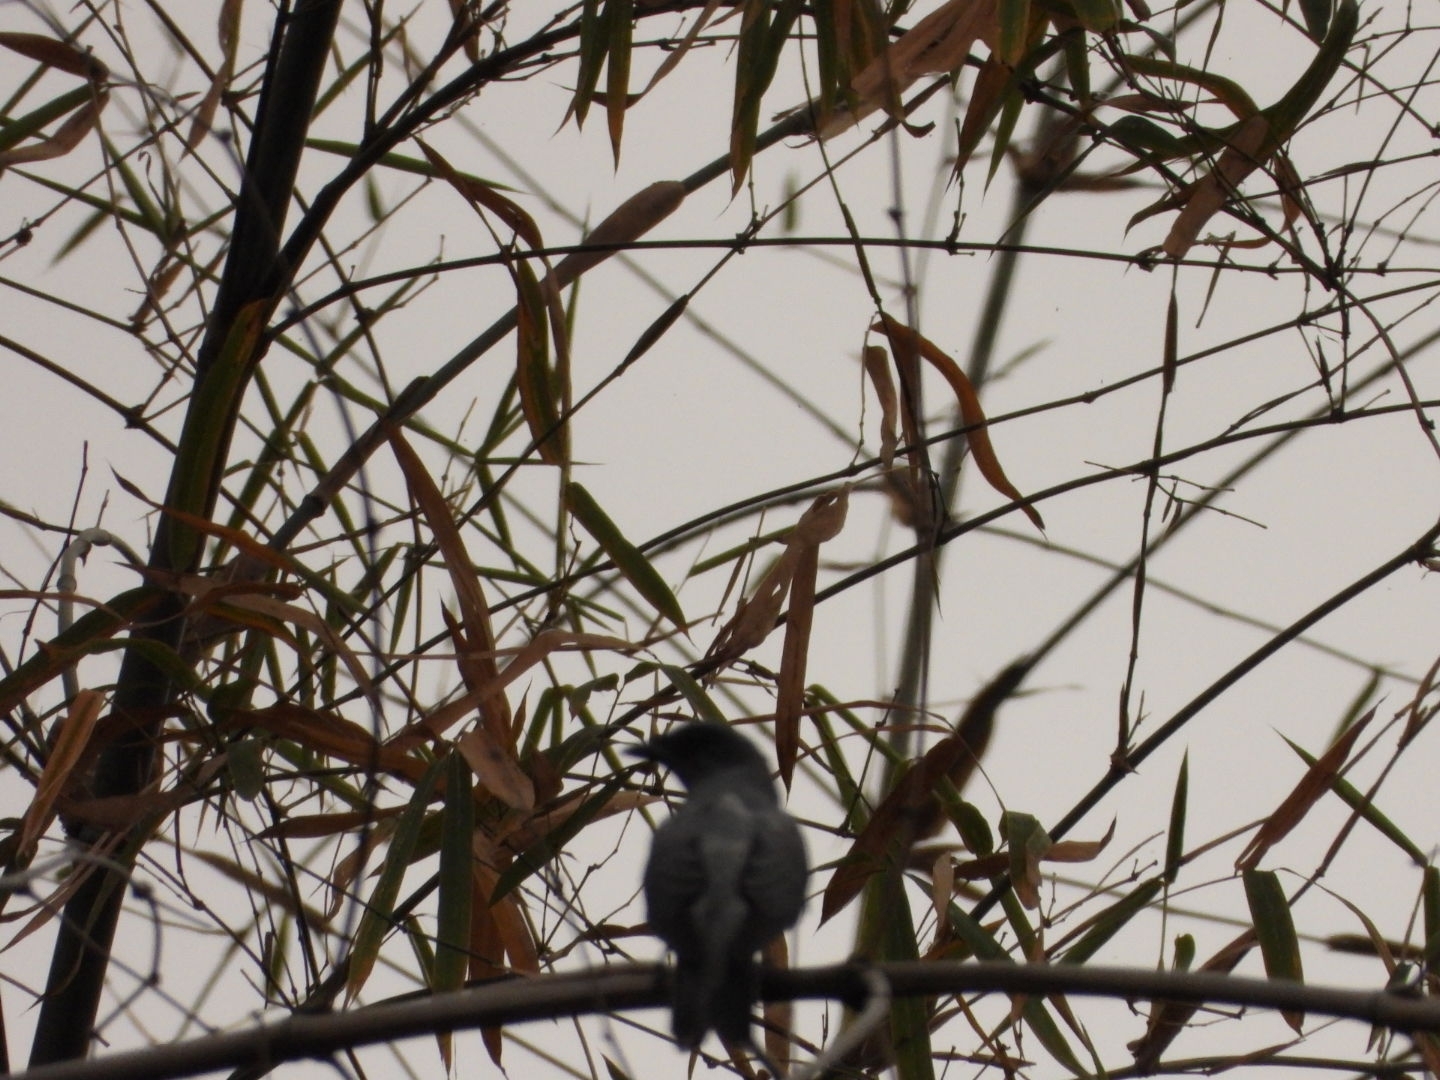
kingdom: Animalia
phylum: Chordata
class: Aves
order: Passeriformes
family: Campephagidae
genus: Coracina
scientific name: Coracina macei
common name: Large cuckooshrike
